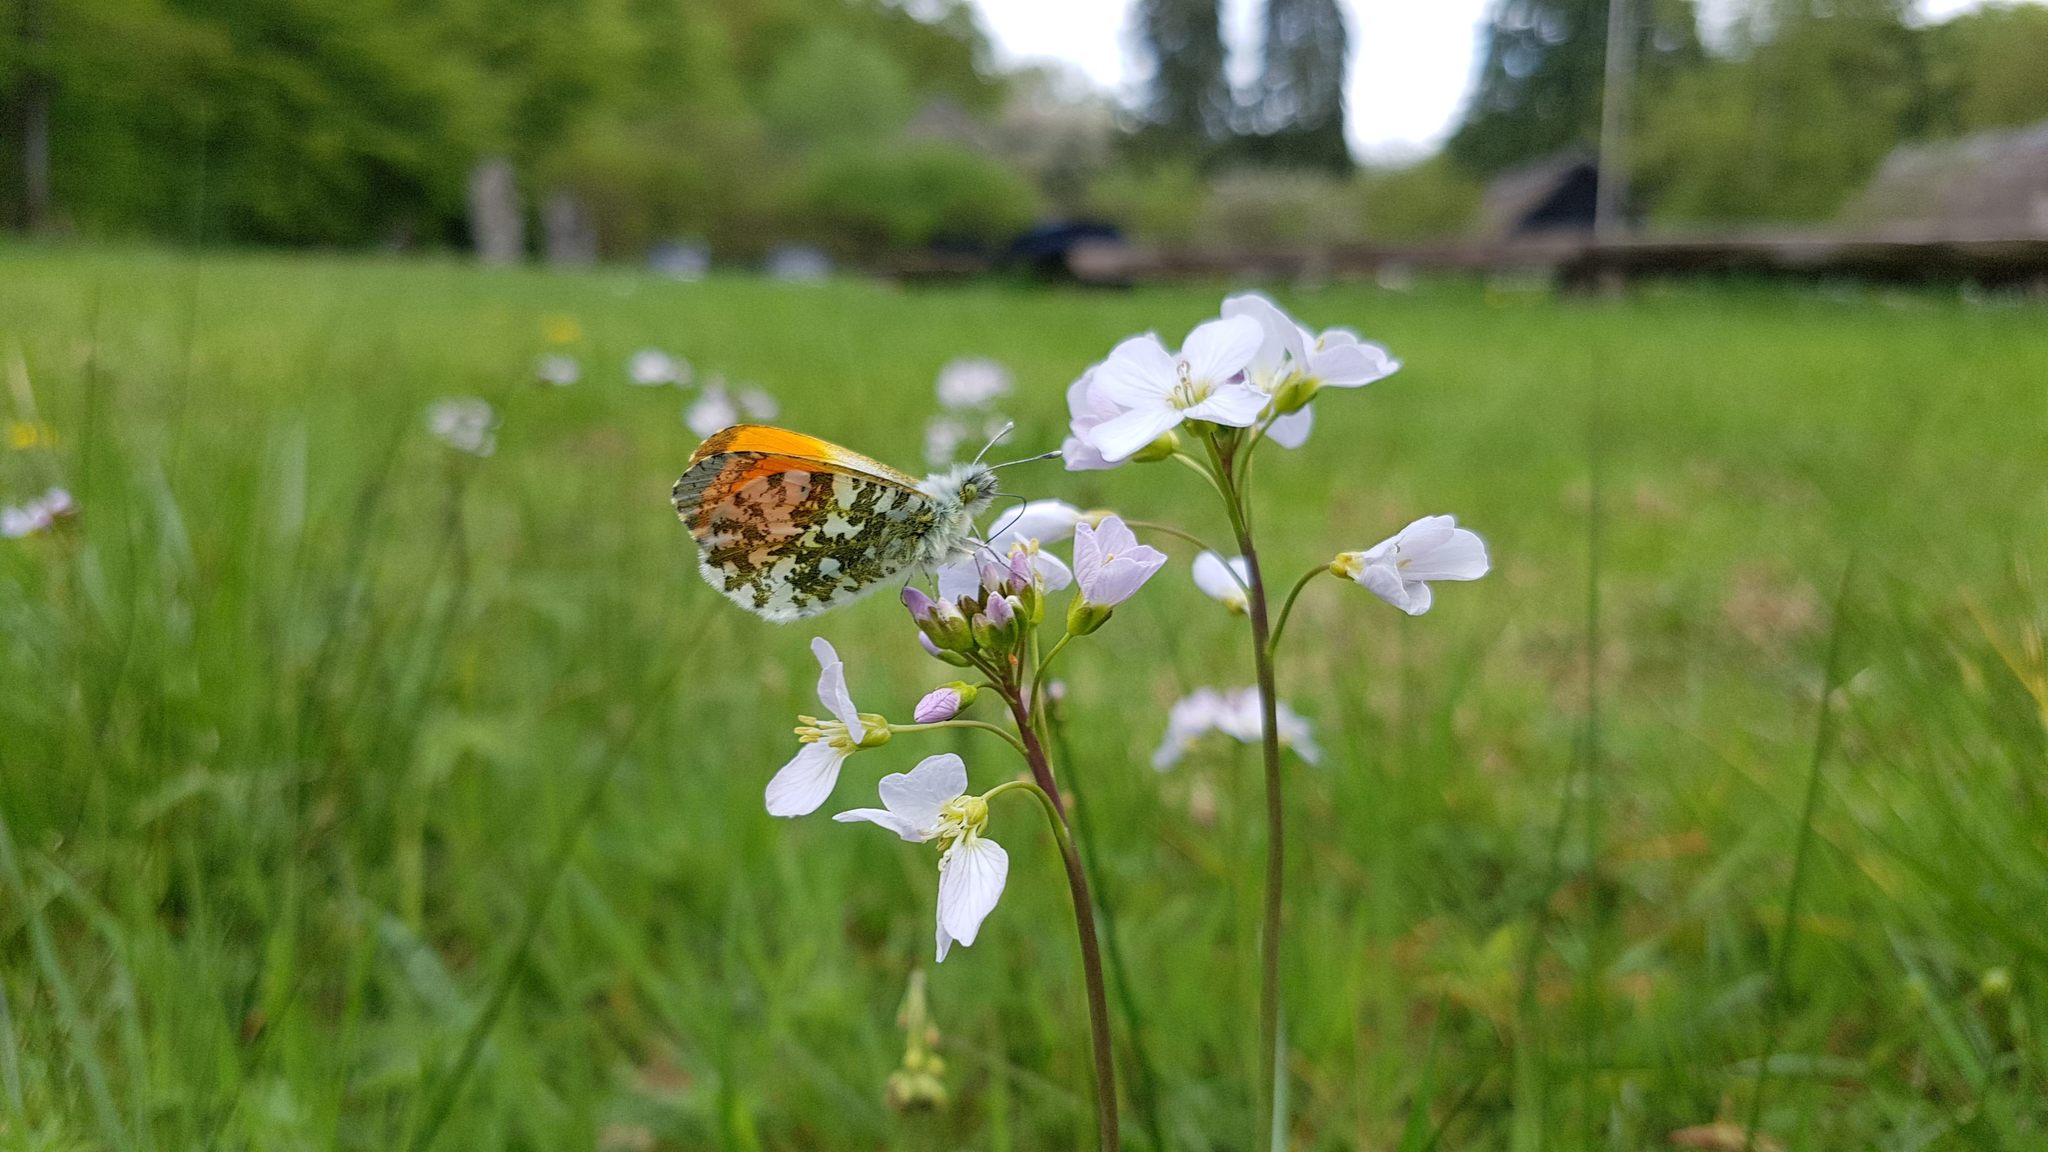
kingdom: Animalia
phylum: Arthropoda
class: Insecta
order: Lepidoptera
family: Pieridae
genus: Anthocharis
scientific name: Anthocharis cardamines
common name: Orange-tip
